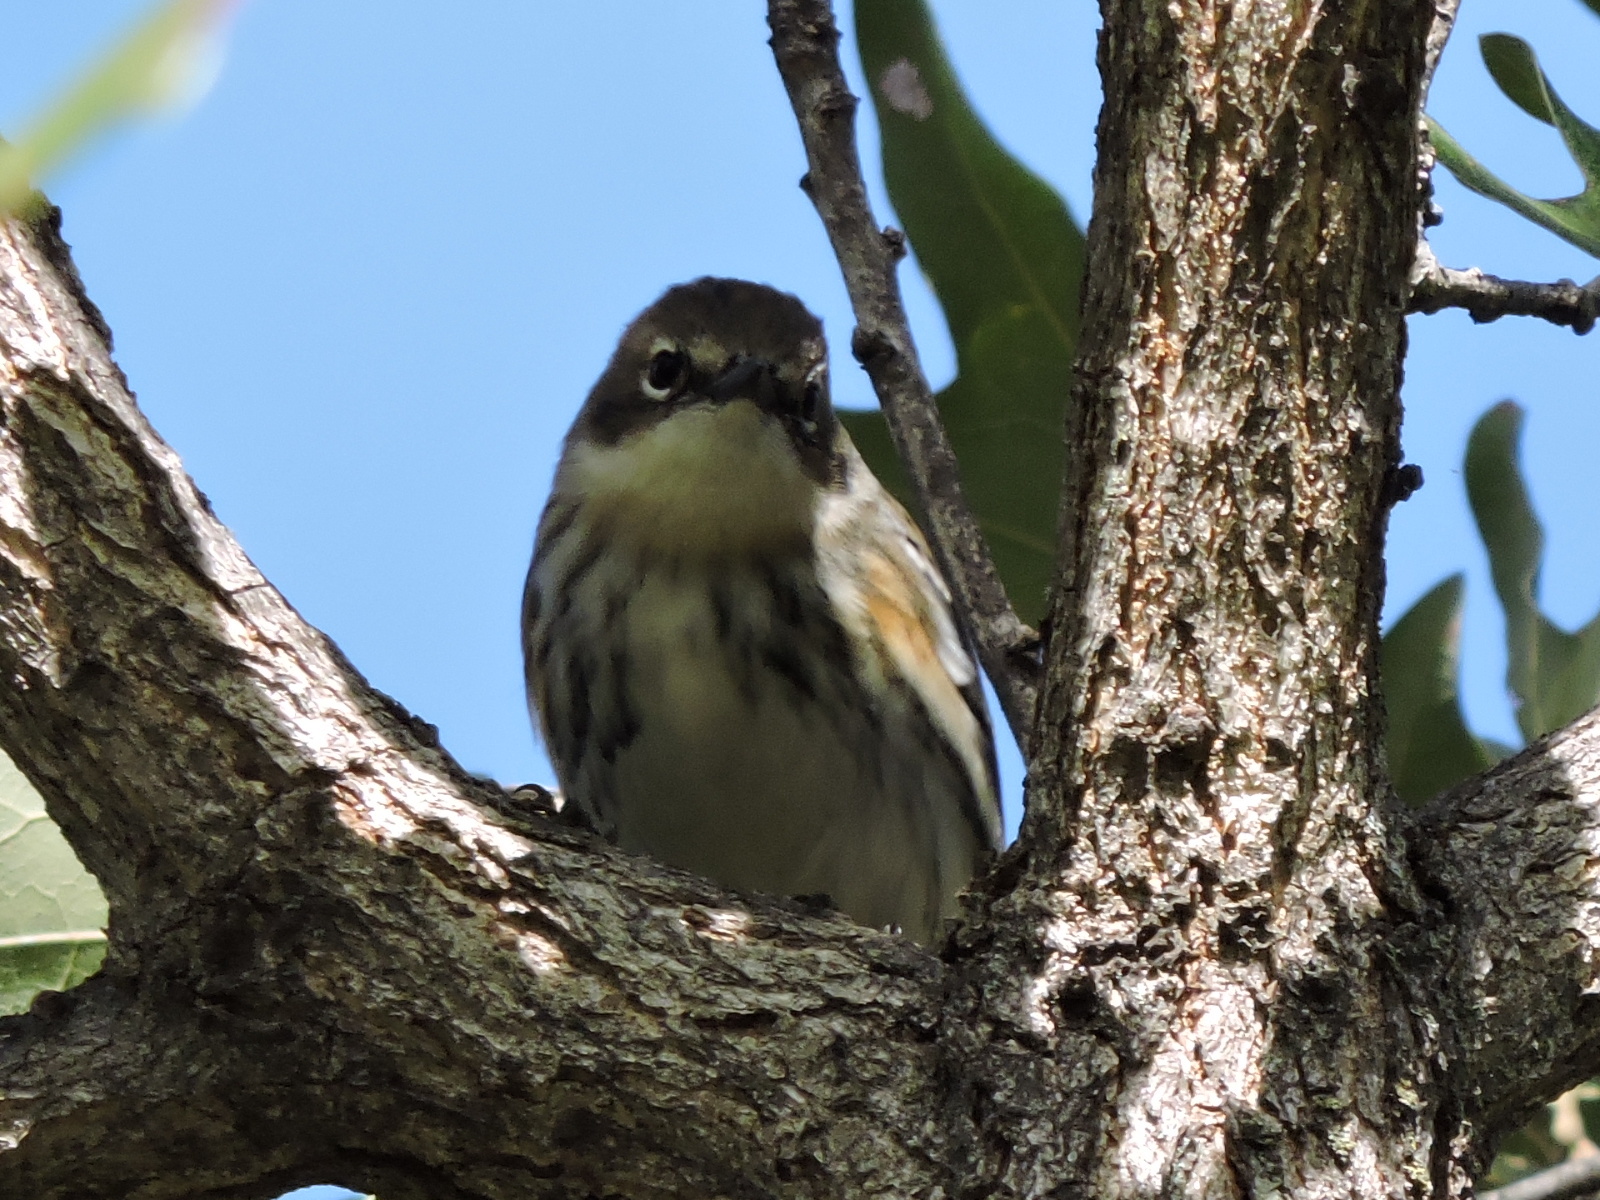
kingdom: Animalia
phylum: Chordata
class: Aves
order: Passeriformes
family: Parulidae
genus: Setophaga
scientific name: Setophaga coronata
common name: Myrtle warbler
